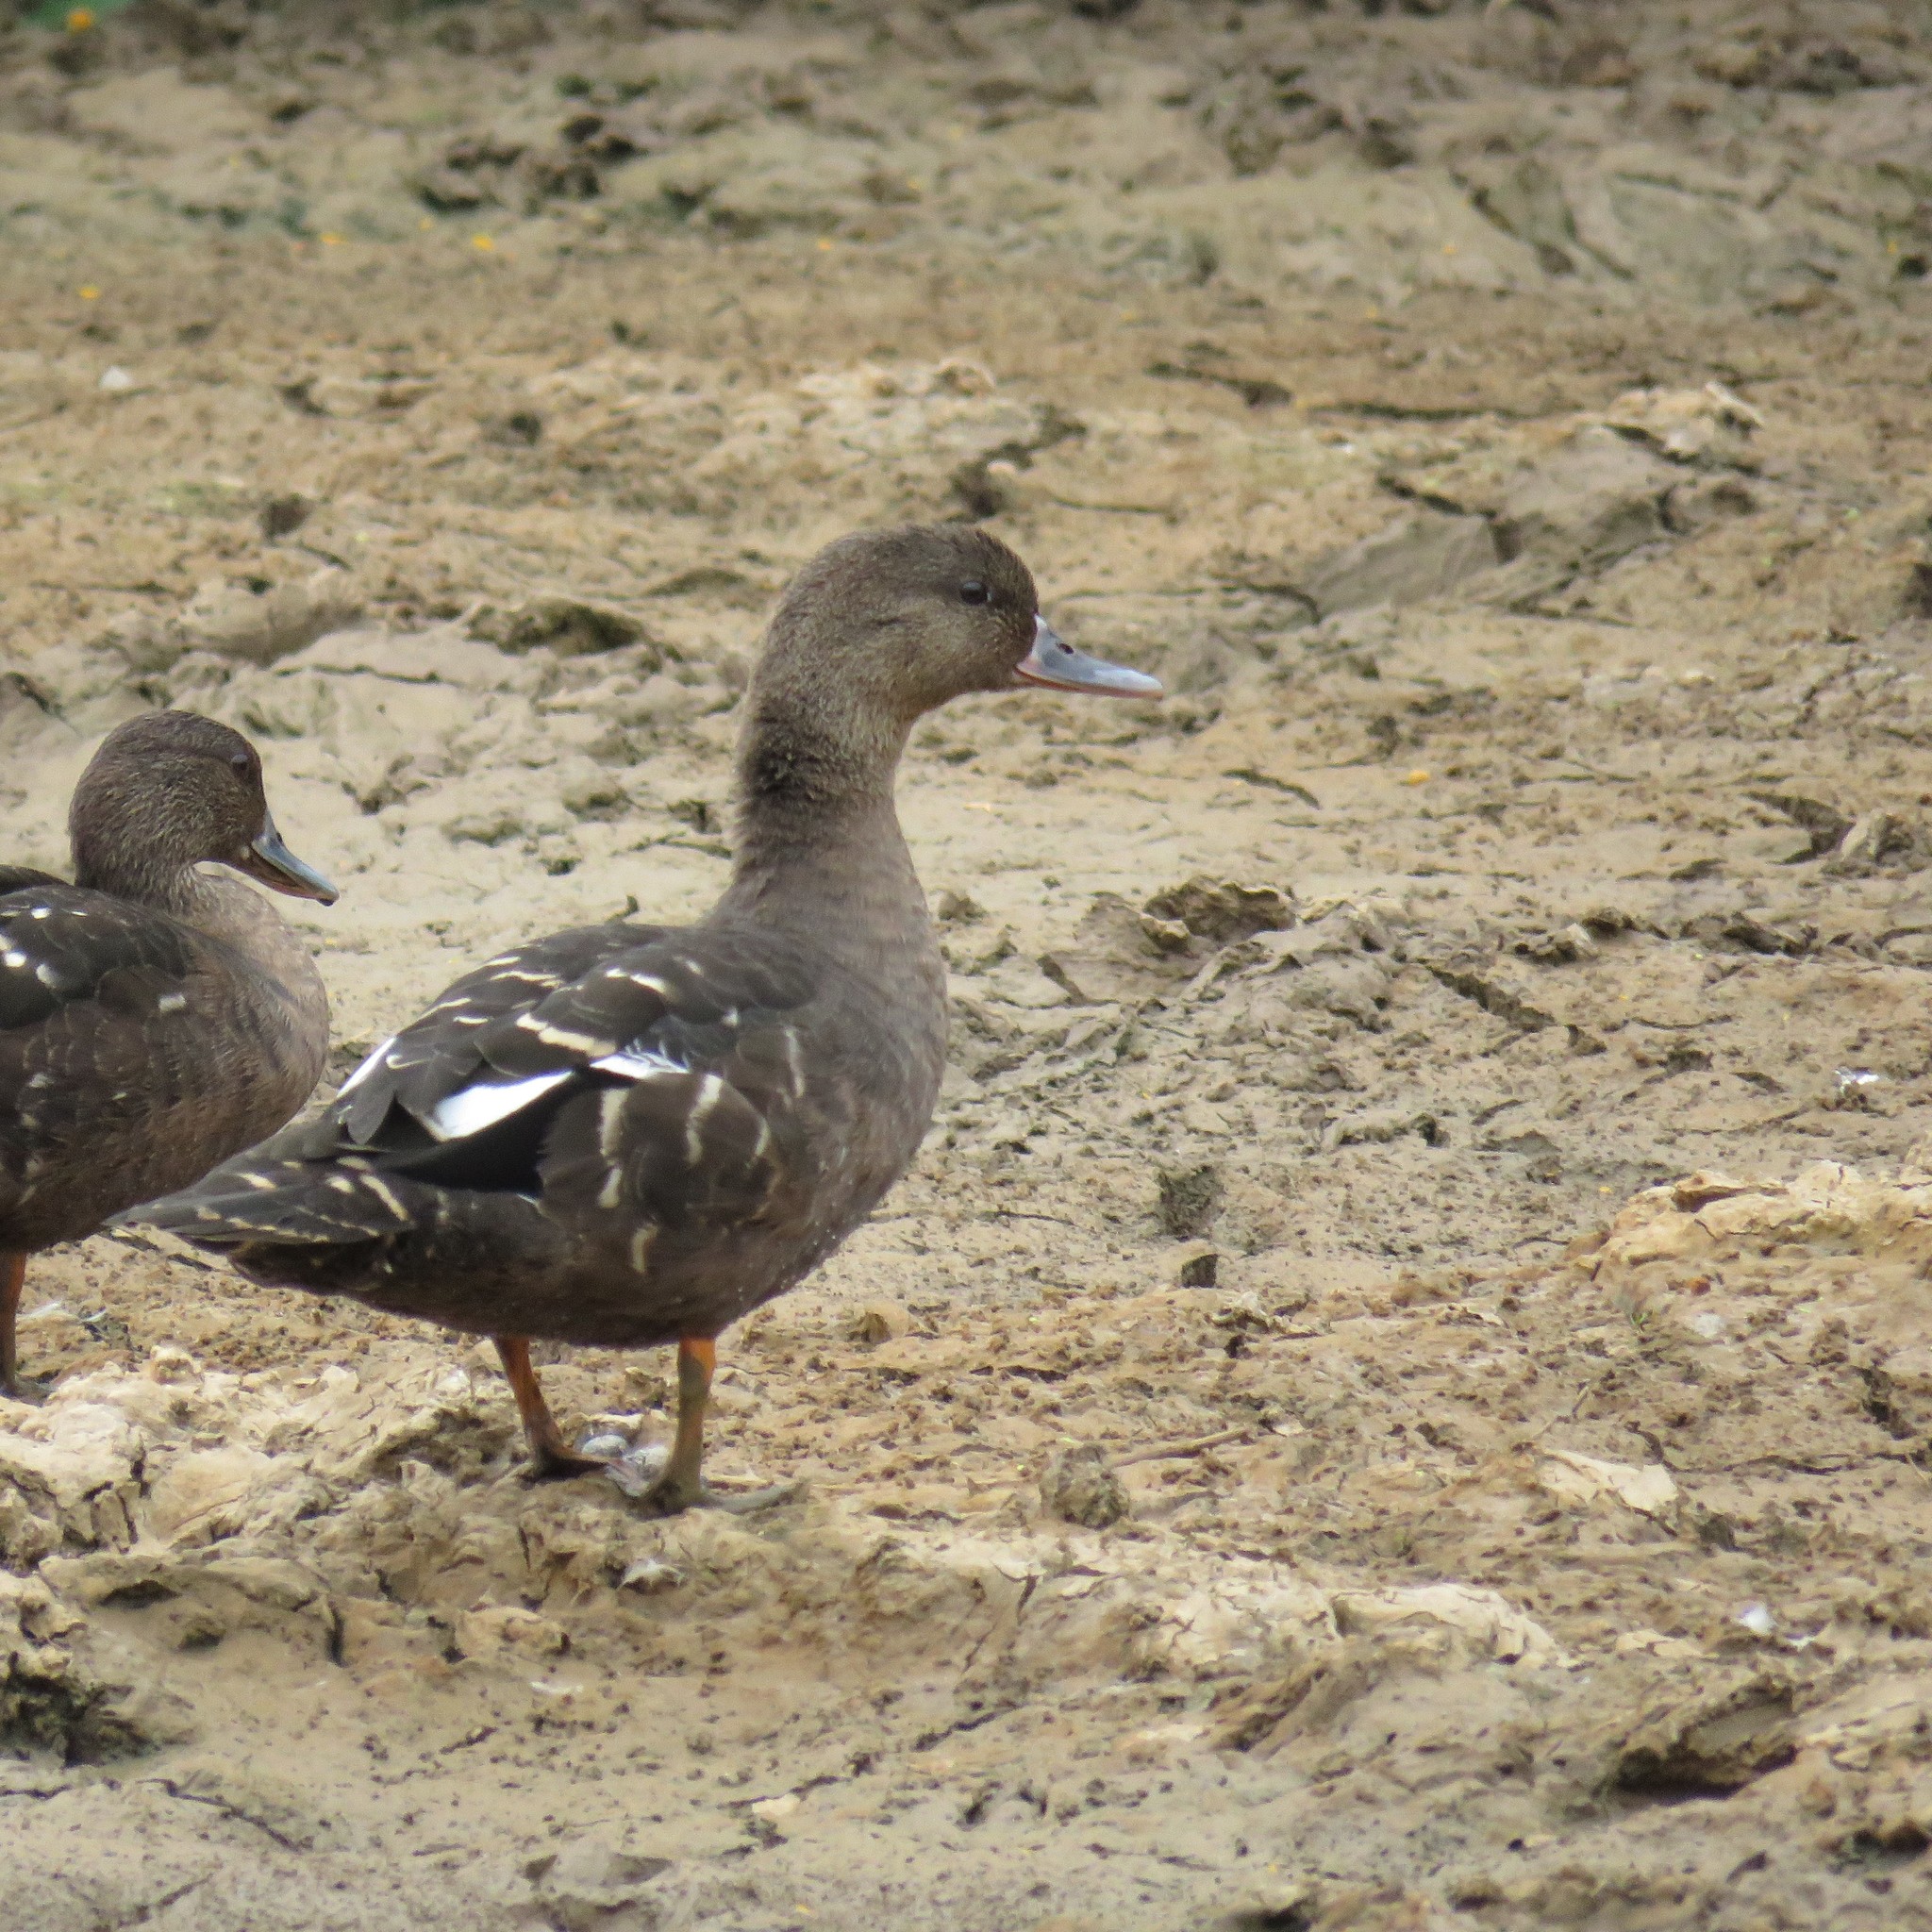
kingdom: Animalia
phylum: Chordata
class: Aves
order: Anseriformes
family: Anatidae
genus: Anas
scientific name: Anas sparsa
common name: African black duck
